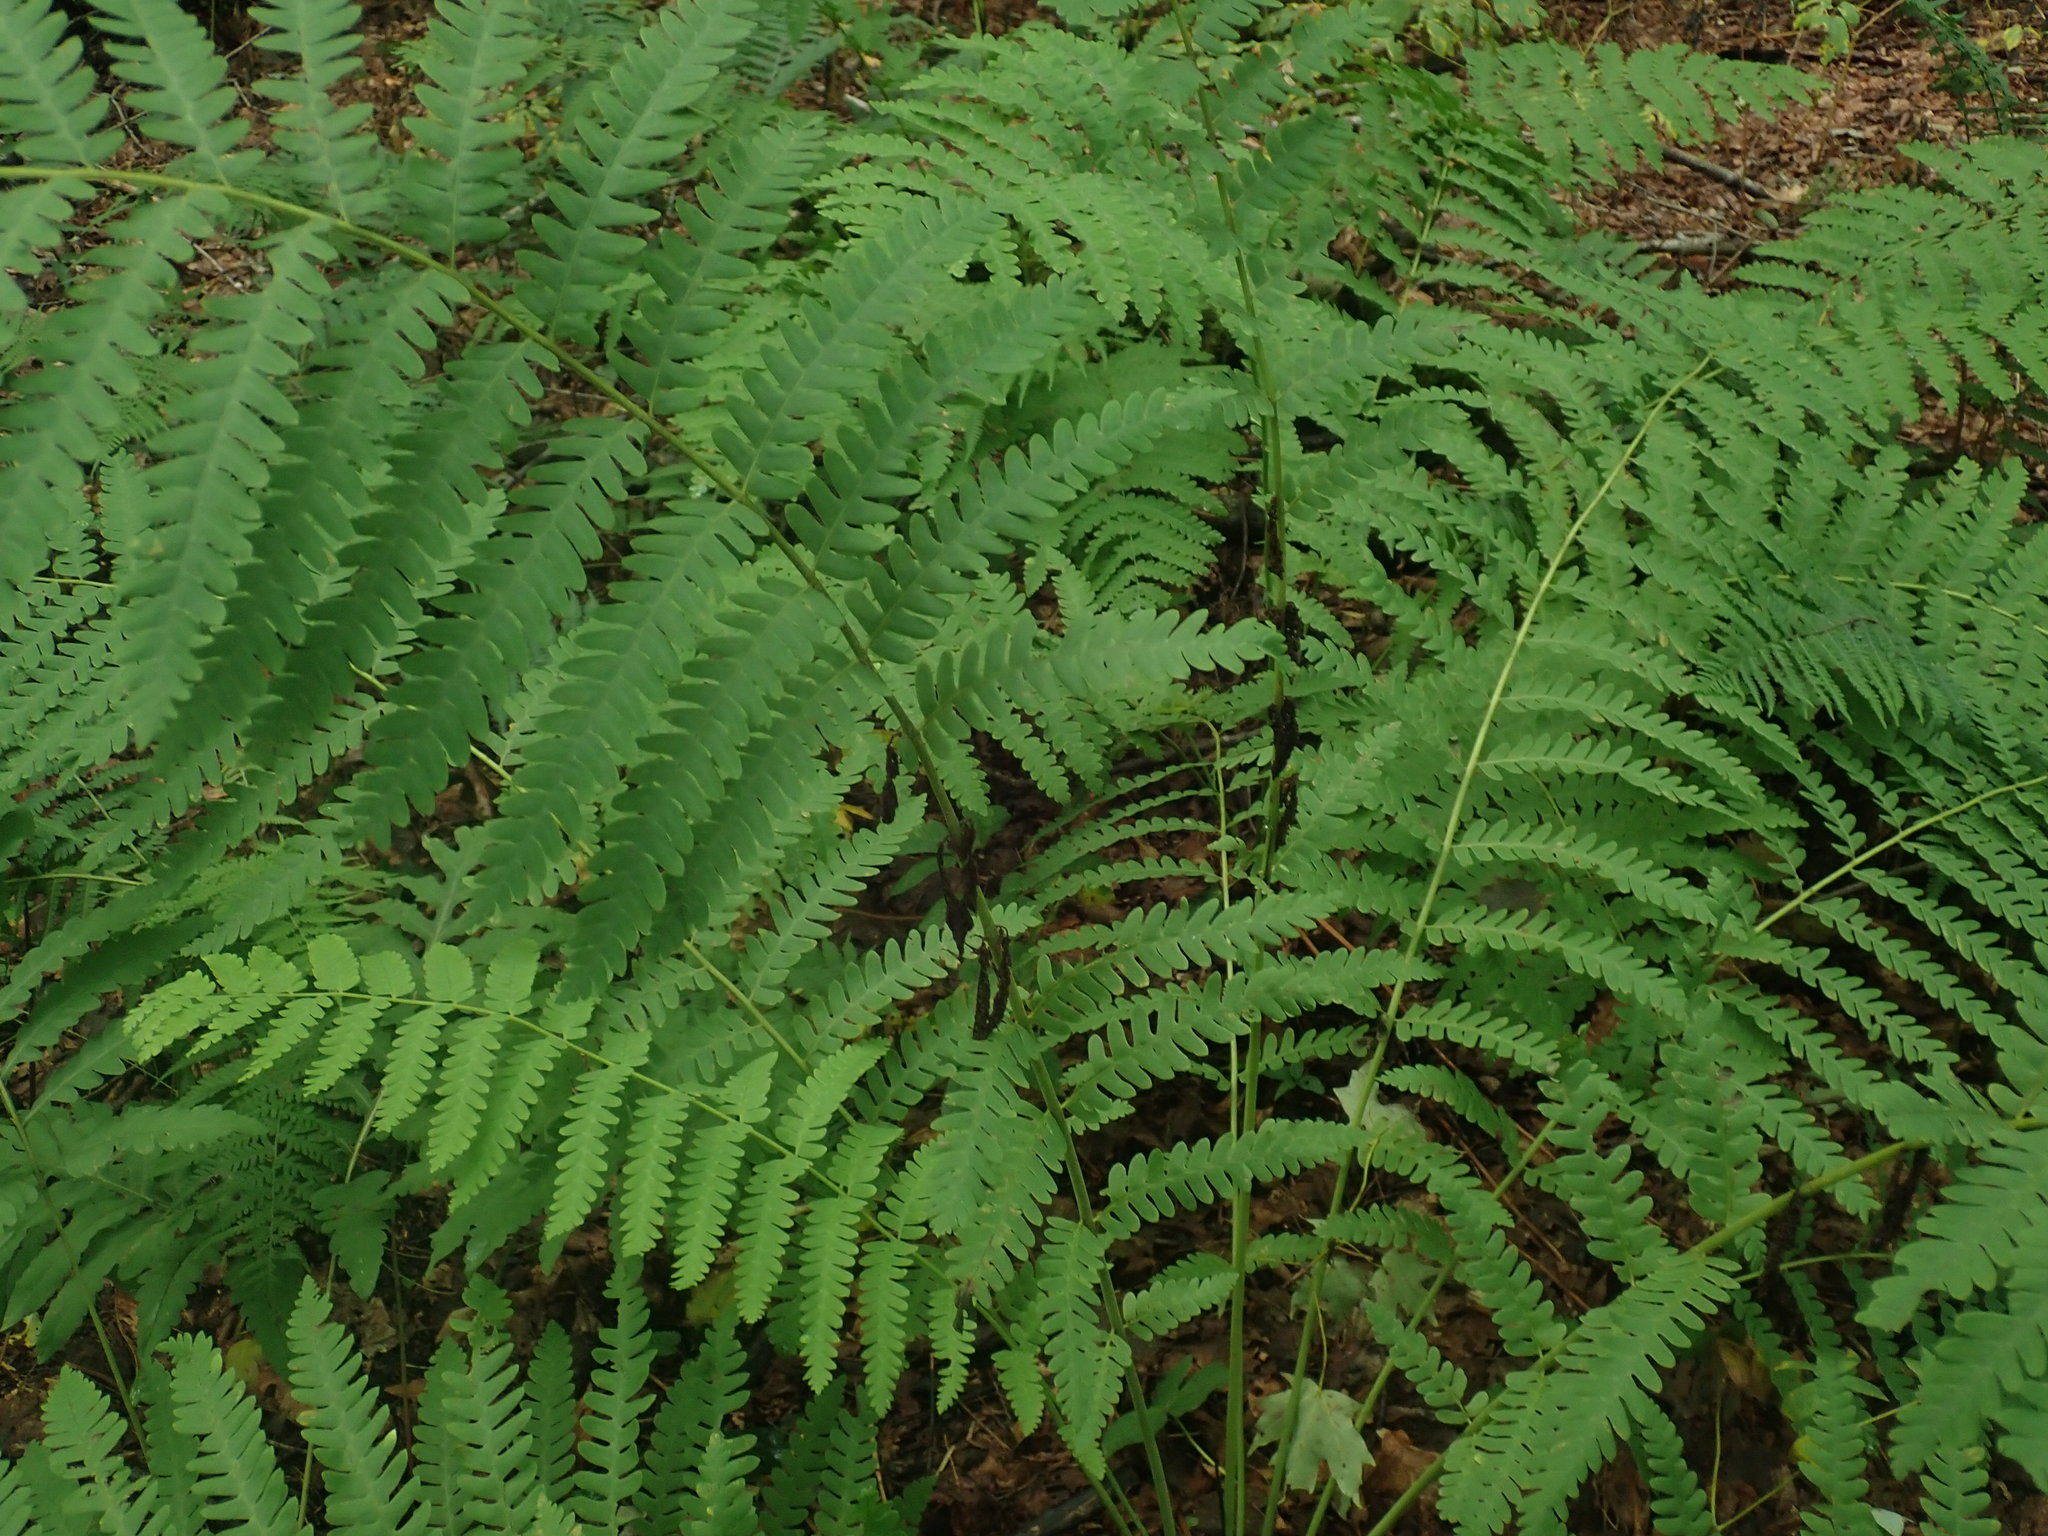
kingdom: Plantae
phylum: Tracheophyta
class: Polypodiopsida
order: Osmundales
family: Osmundaceae
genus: Claytosmunda
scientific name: Claytosmunda claytoniana
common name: Clayton's fern
